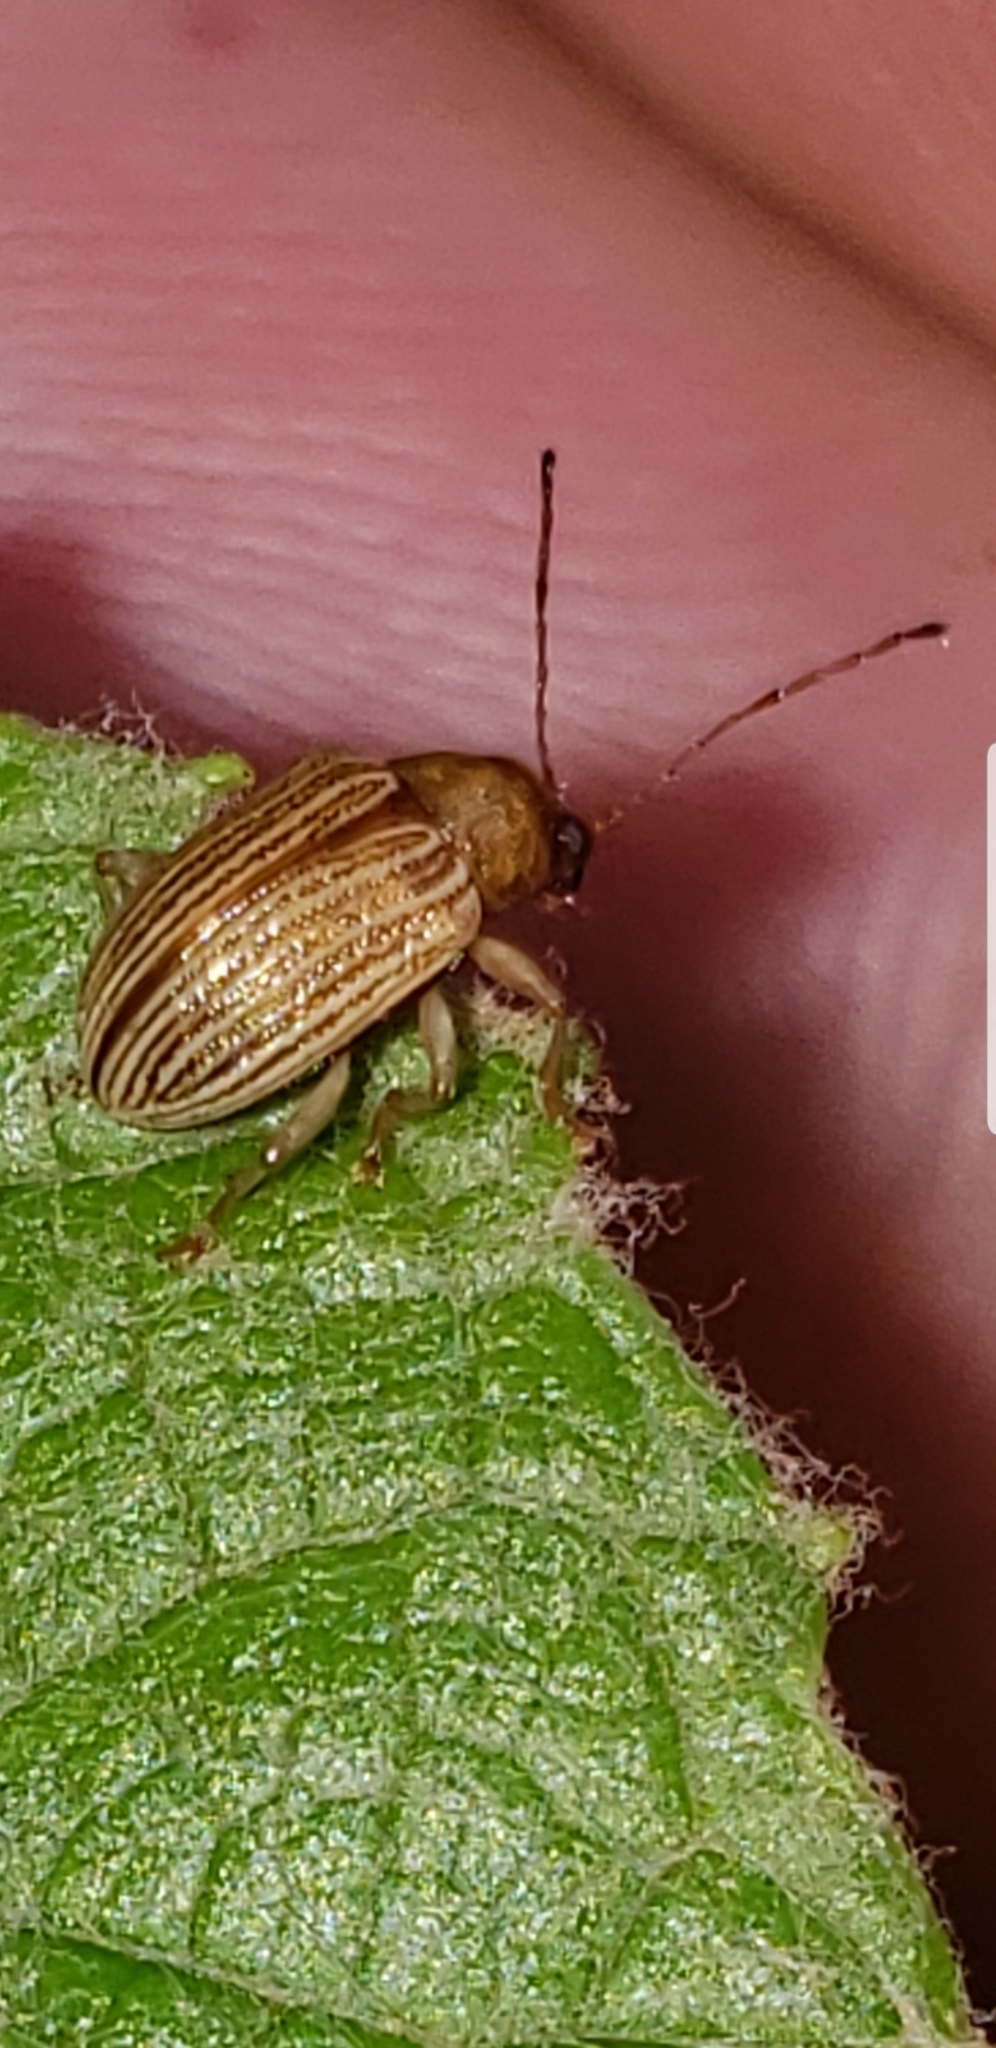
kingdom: Animalia
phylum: Arthropoda
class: Insecta
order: Coleoptera
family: Chrysomelidae
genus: Colaspis
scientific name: Colaspis brunnea
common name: Grape colaspis
